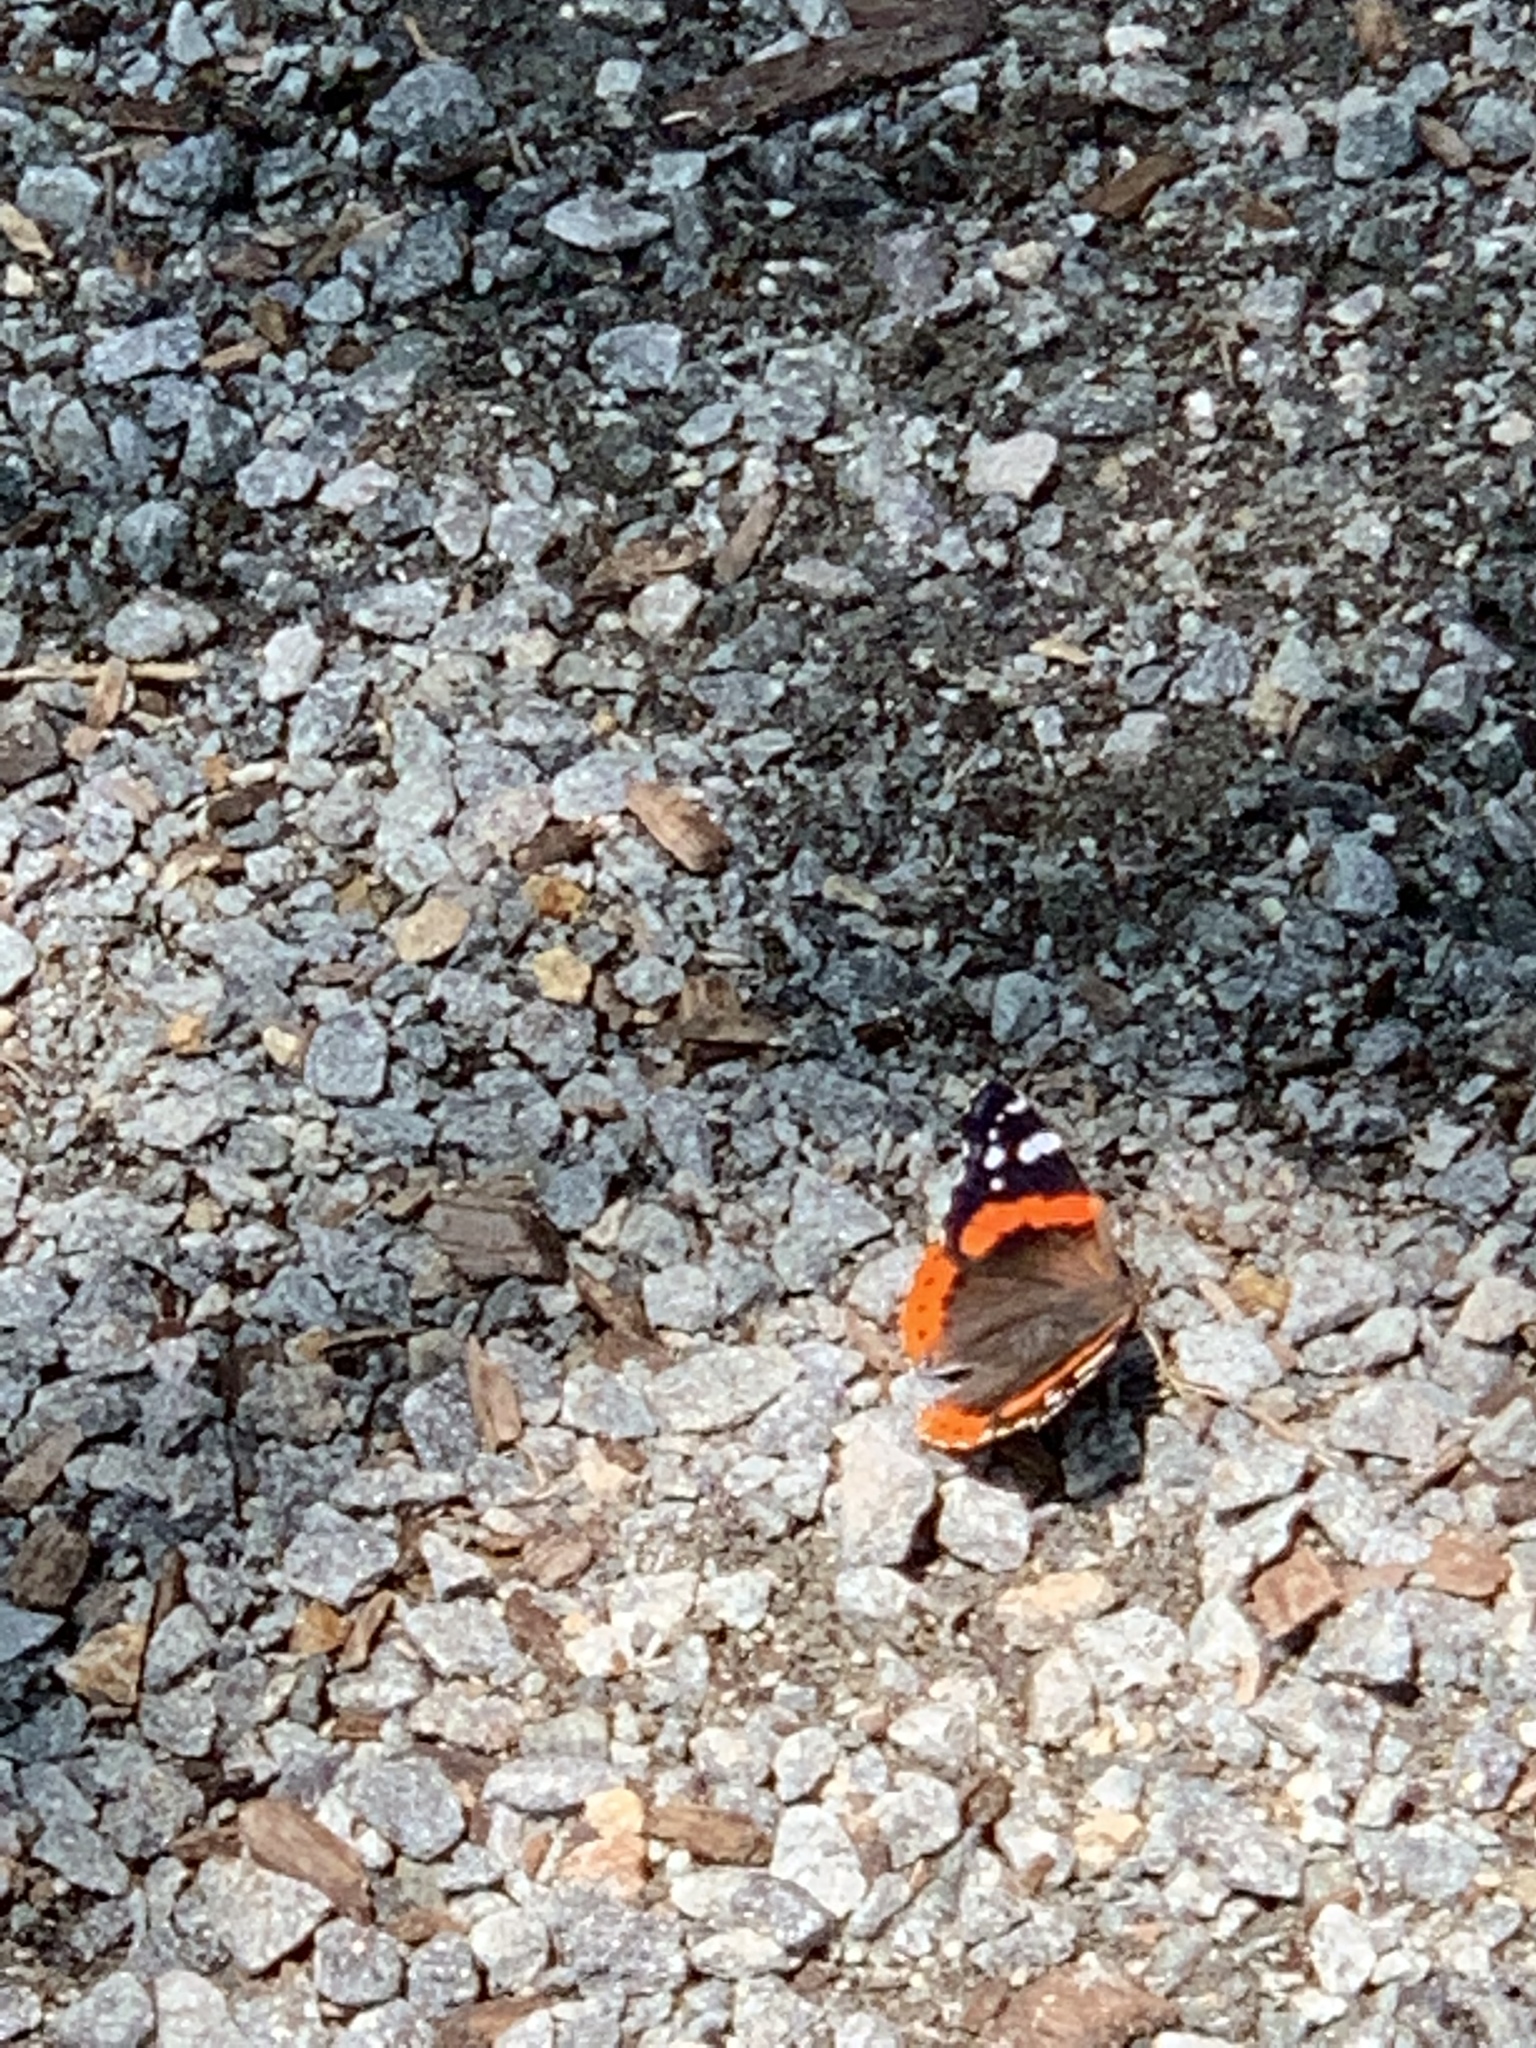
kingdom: Animalia
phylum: Arthropoda
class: Insecta
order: Lepidoptera
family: Nymphalidae
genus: Vanessa
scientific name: Vanessa atalanta
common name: Red admiral
